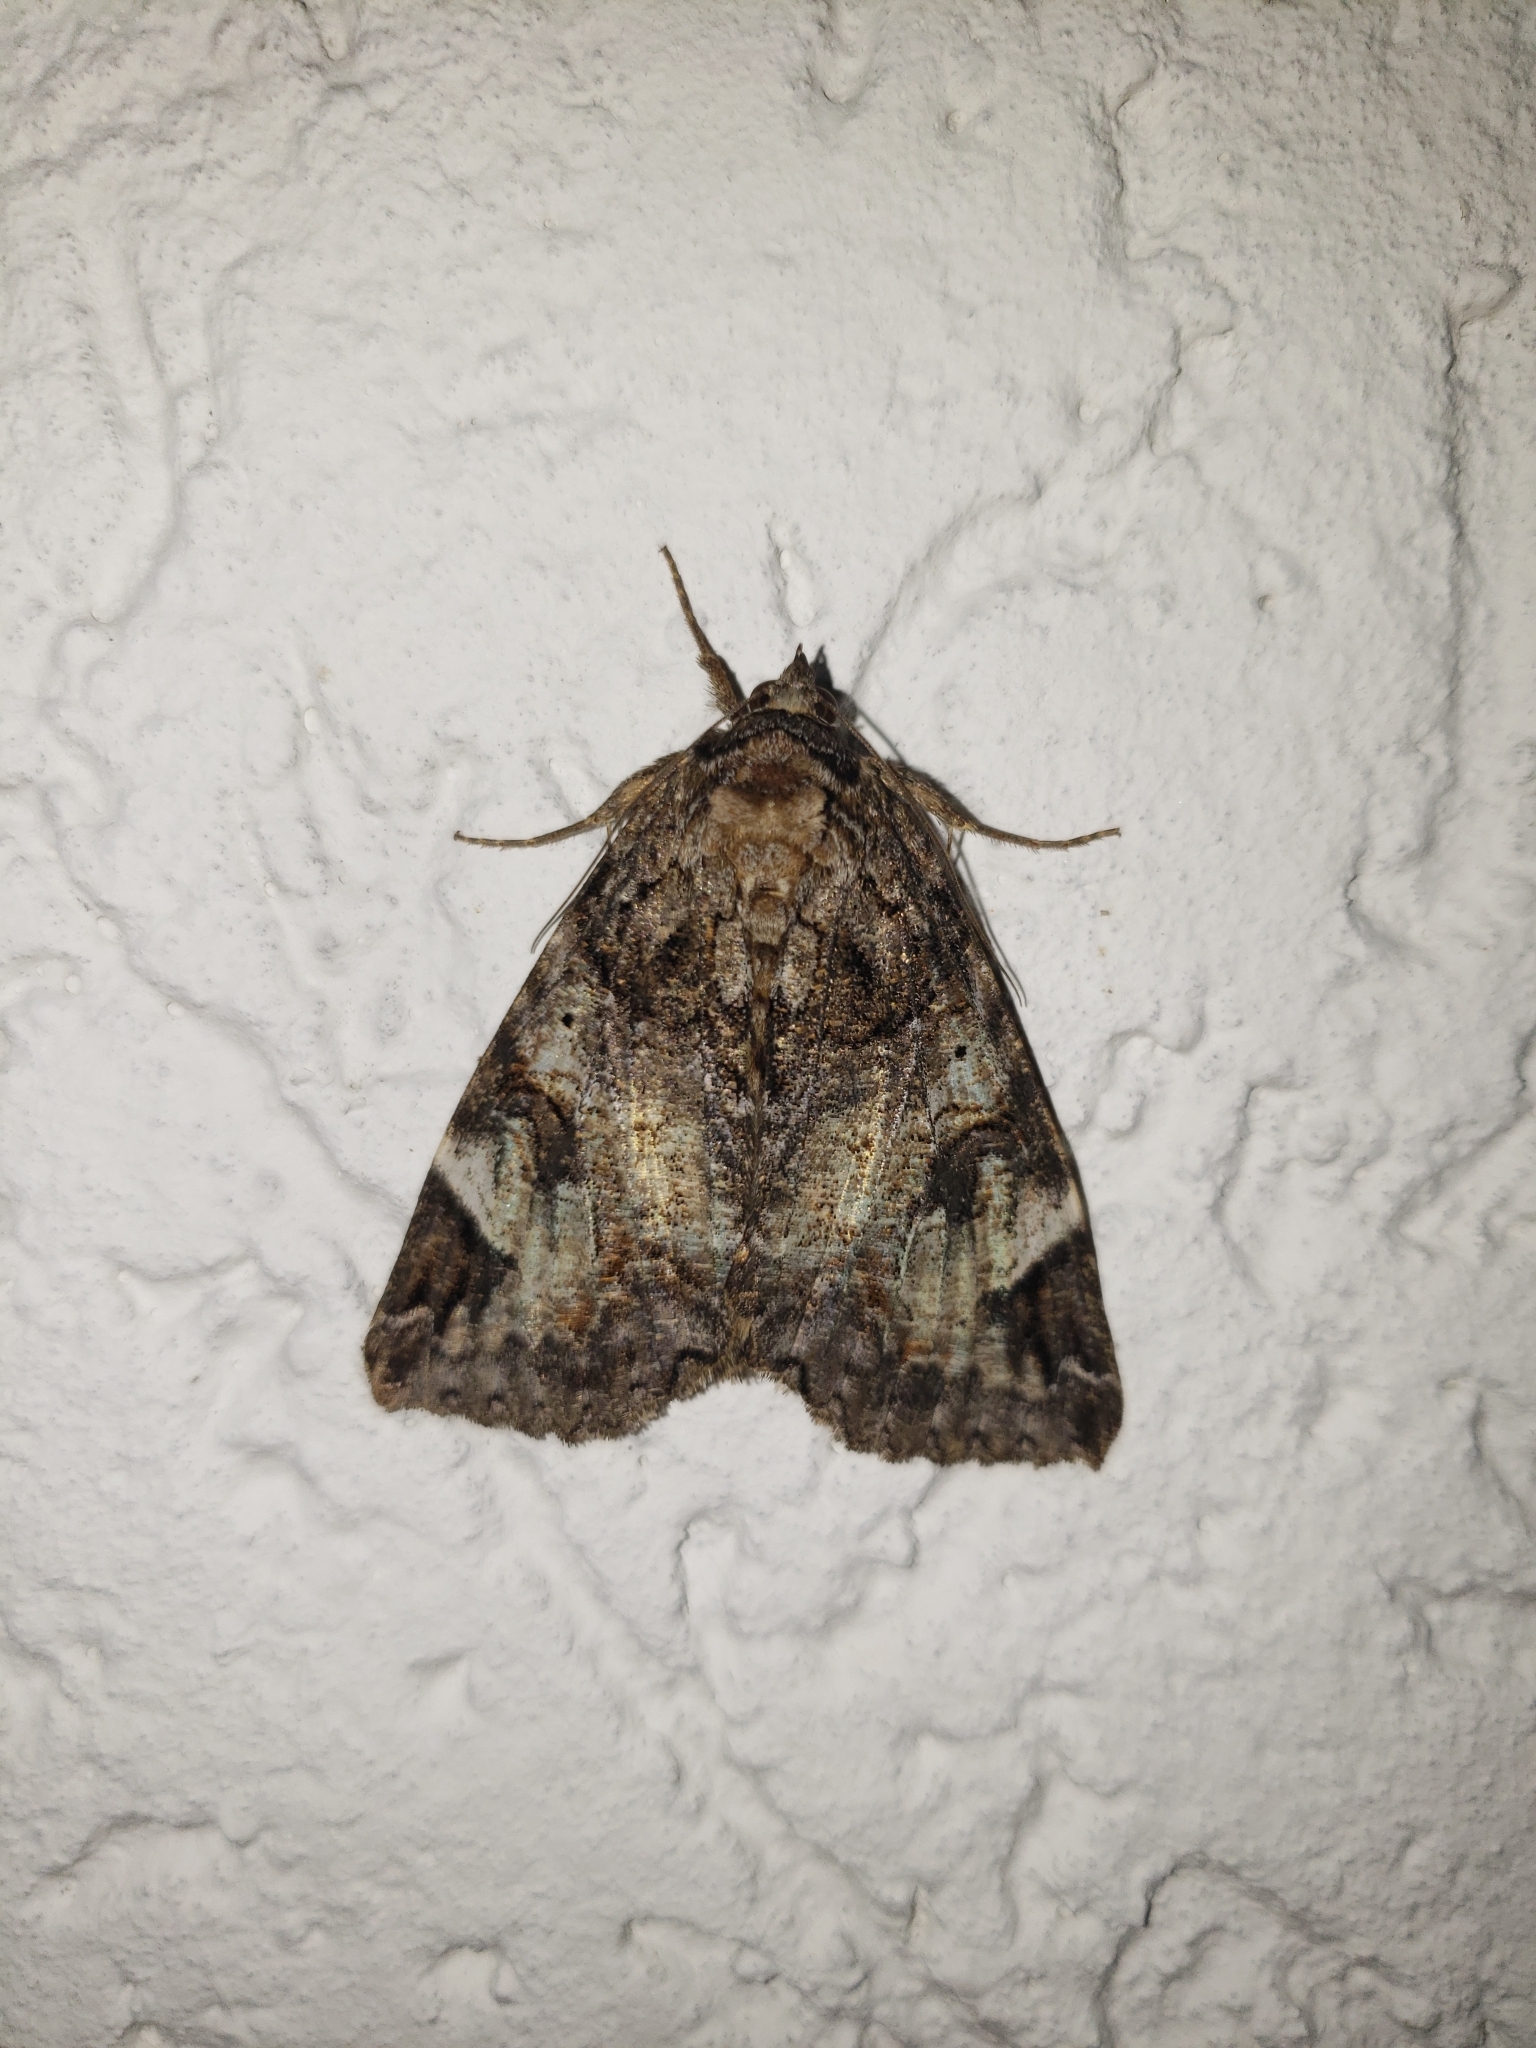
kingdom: Animalia
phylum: Arthropoda
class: Insecta
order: Lepidoptera
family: Erebidae
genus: Euparthenos
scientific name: Euparthenos nubilis
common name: Locust underwing
